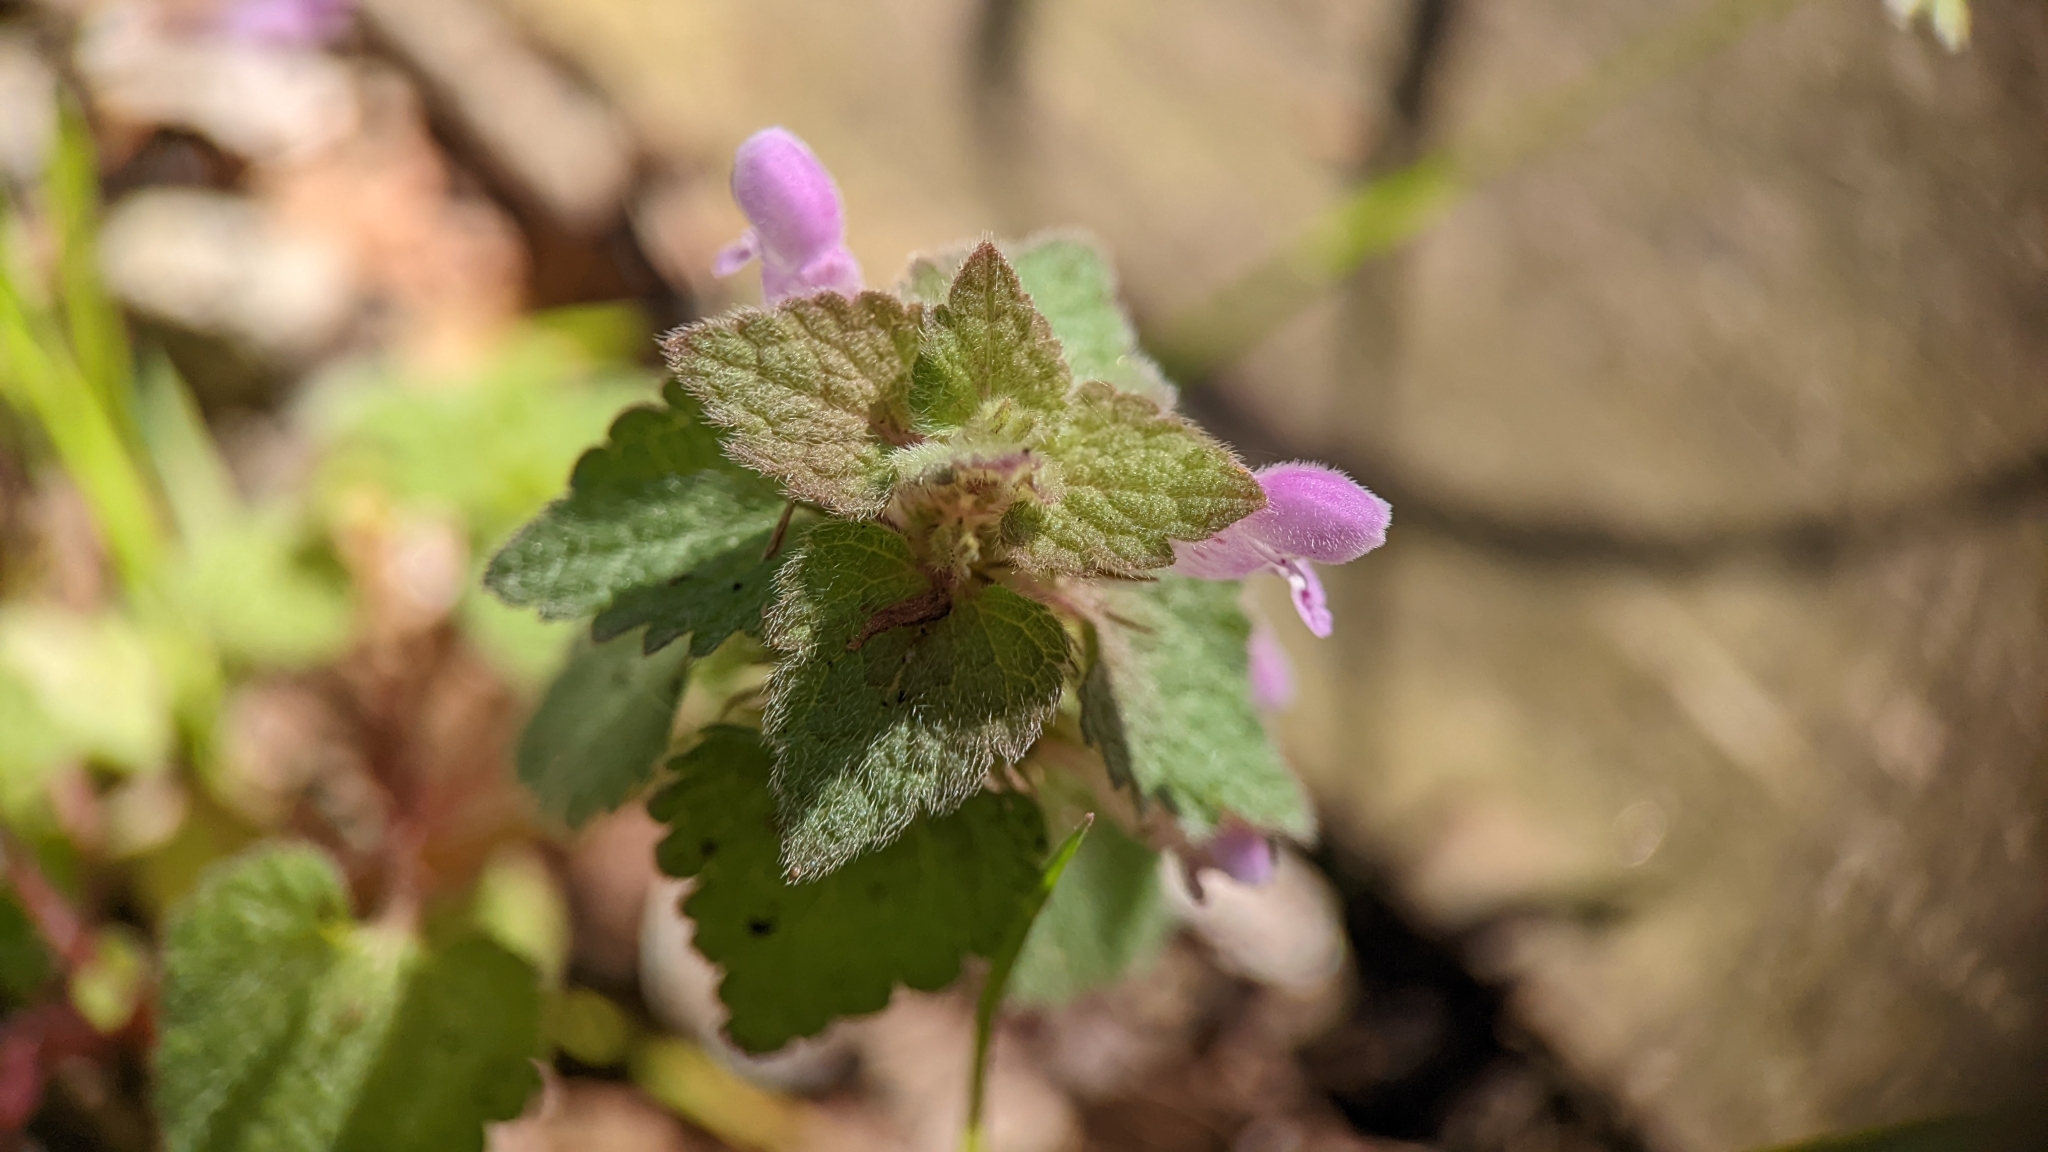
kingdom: Plantae
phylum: Tracheophyta
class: Magnoliopsida
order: Lamiales
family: Lamiaceae
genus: Lamium
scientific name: Lamium purpureum
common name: Red dead-nettle
